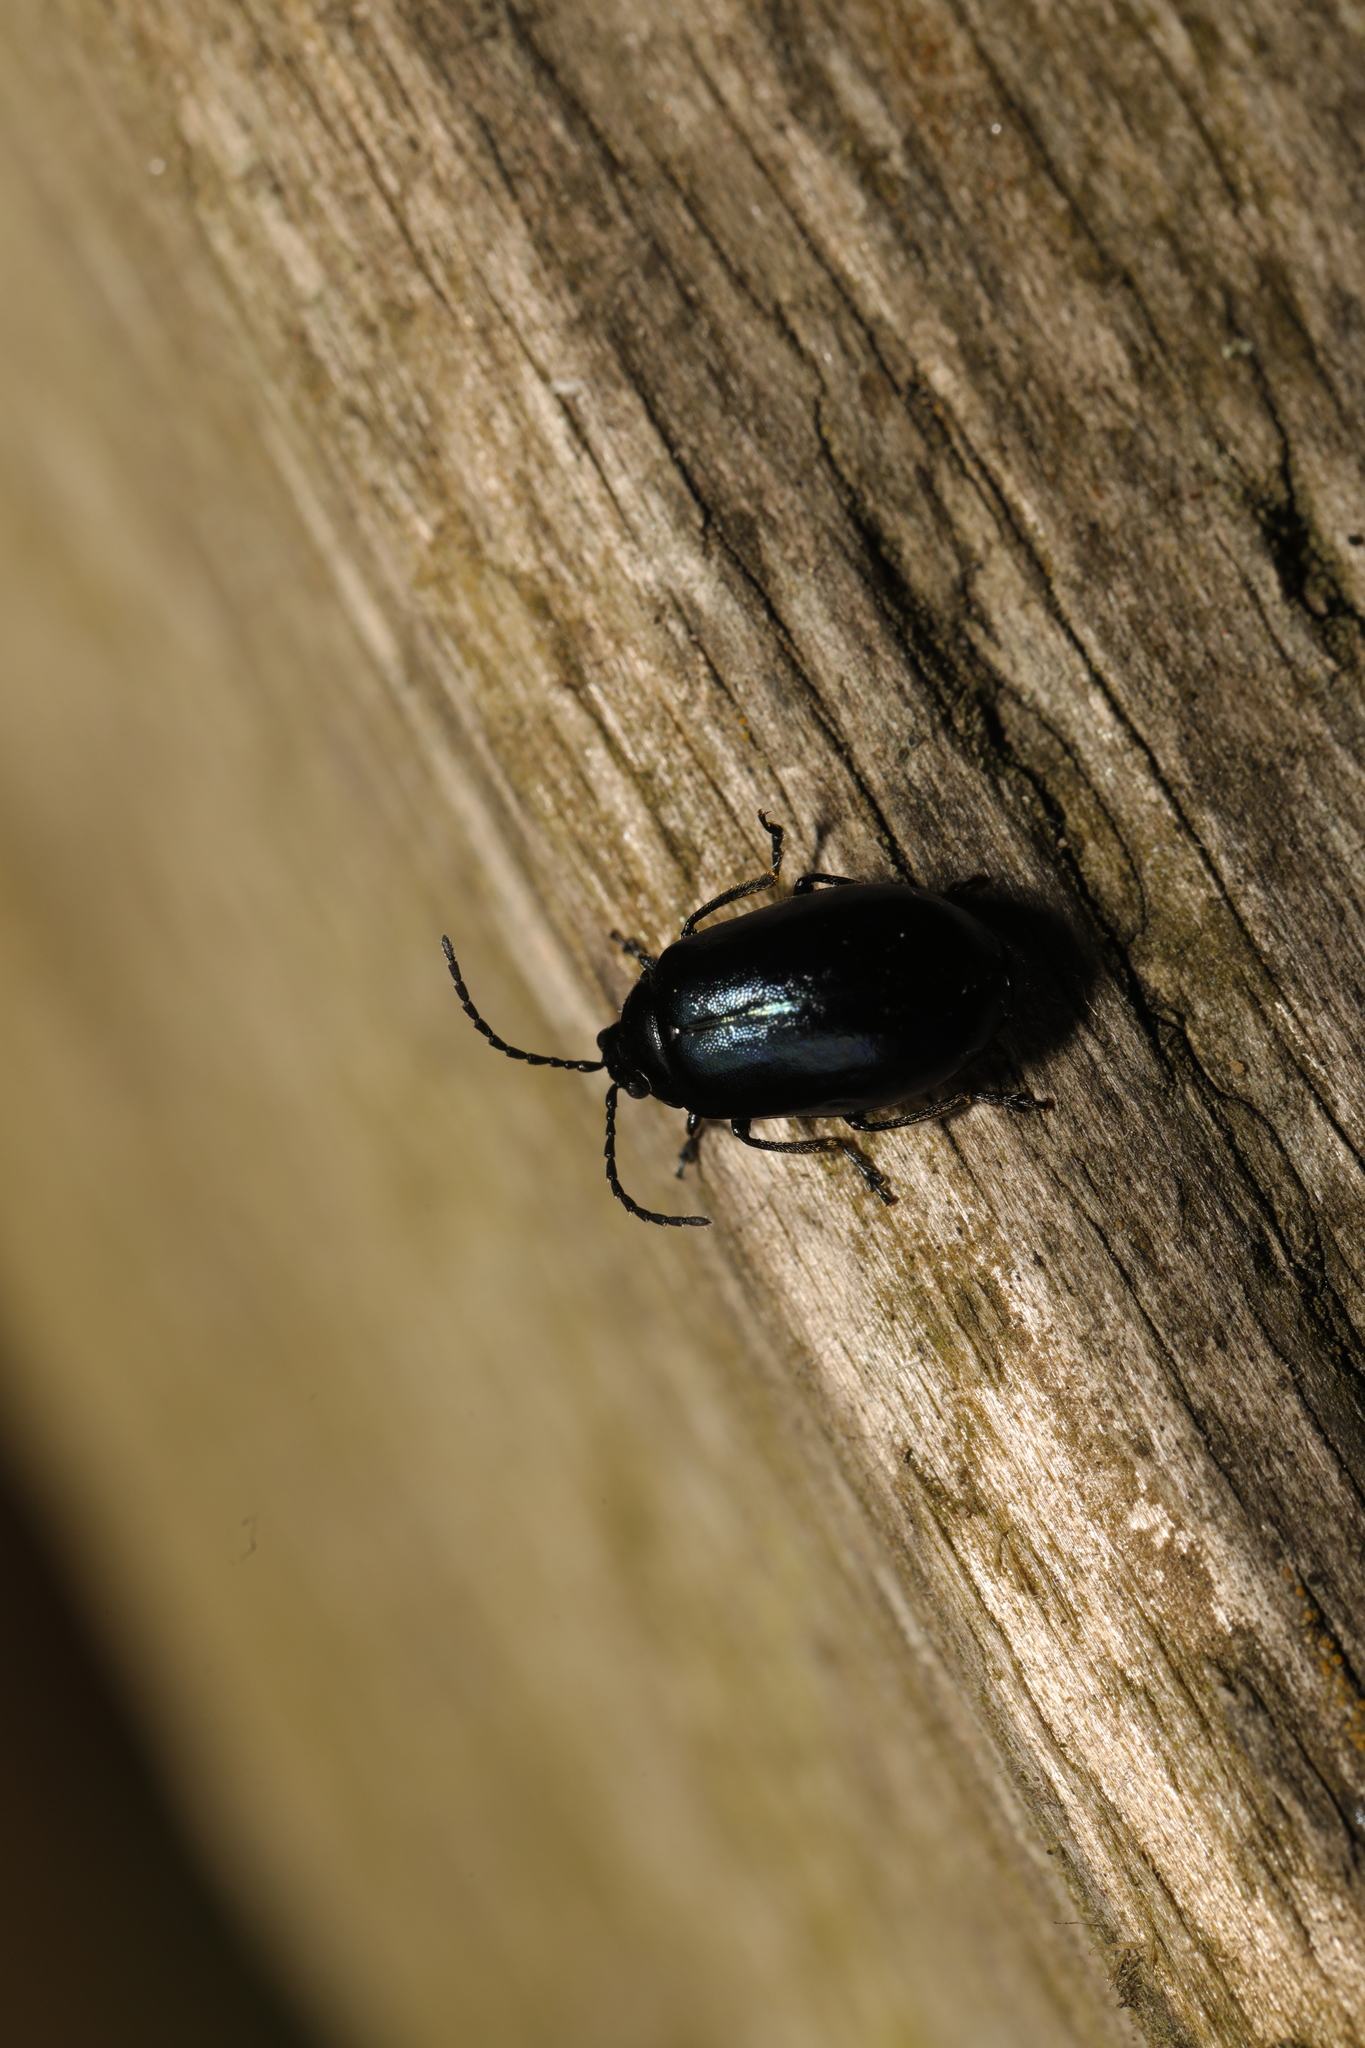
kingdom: Animalia
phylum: Arthropoda
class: Insecta
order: Coleoptera
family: Chrysomelidae
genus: Agelastica
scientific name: Agelastica alni
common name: Alder leaf beetle
